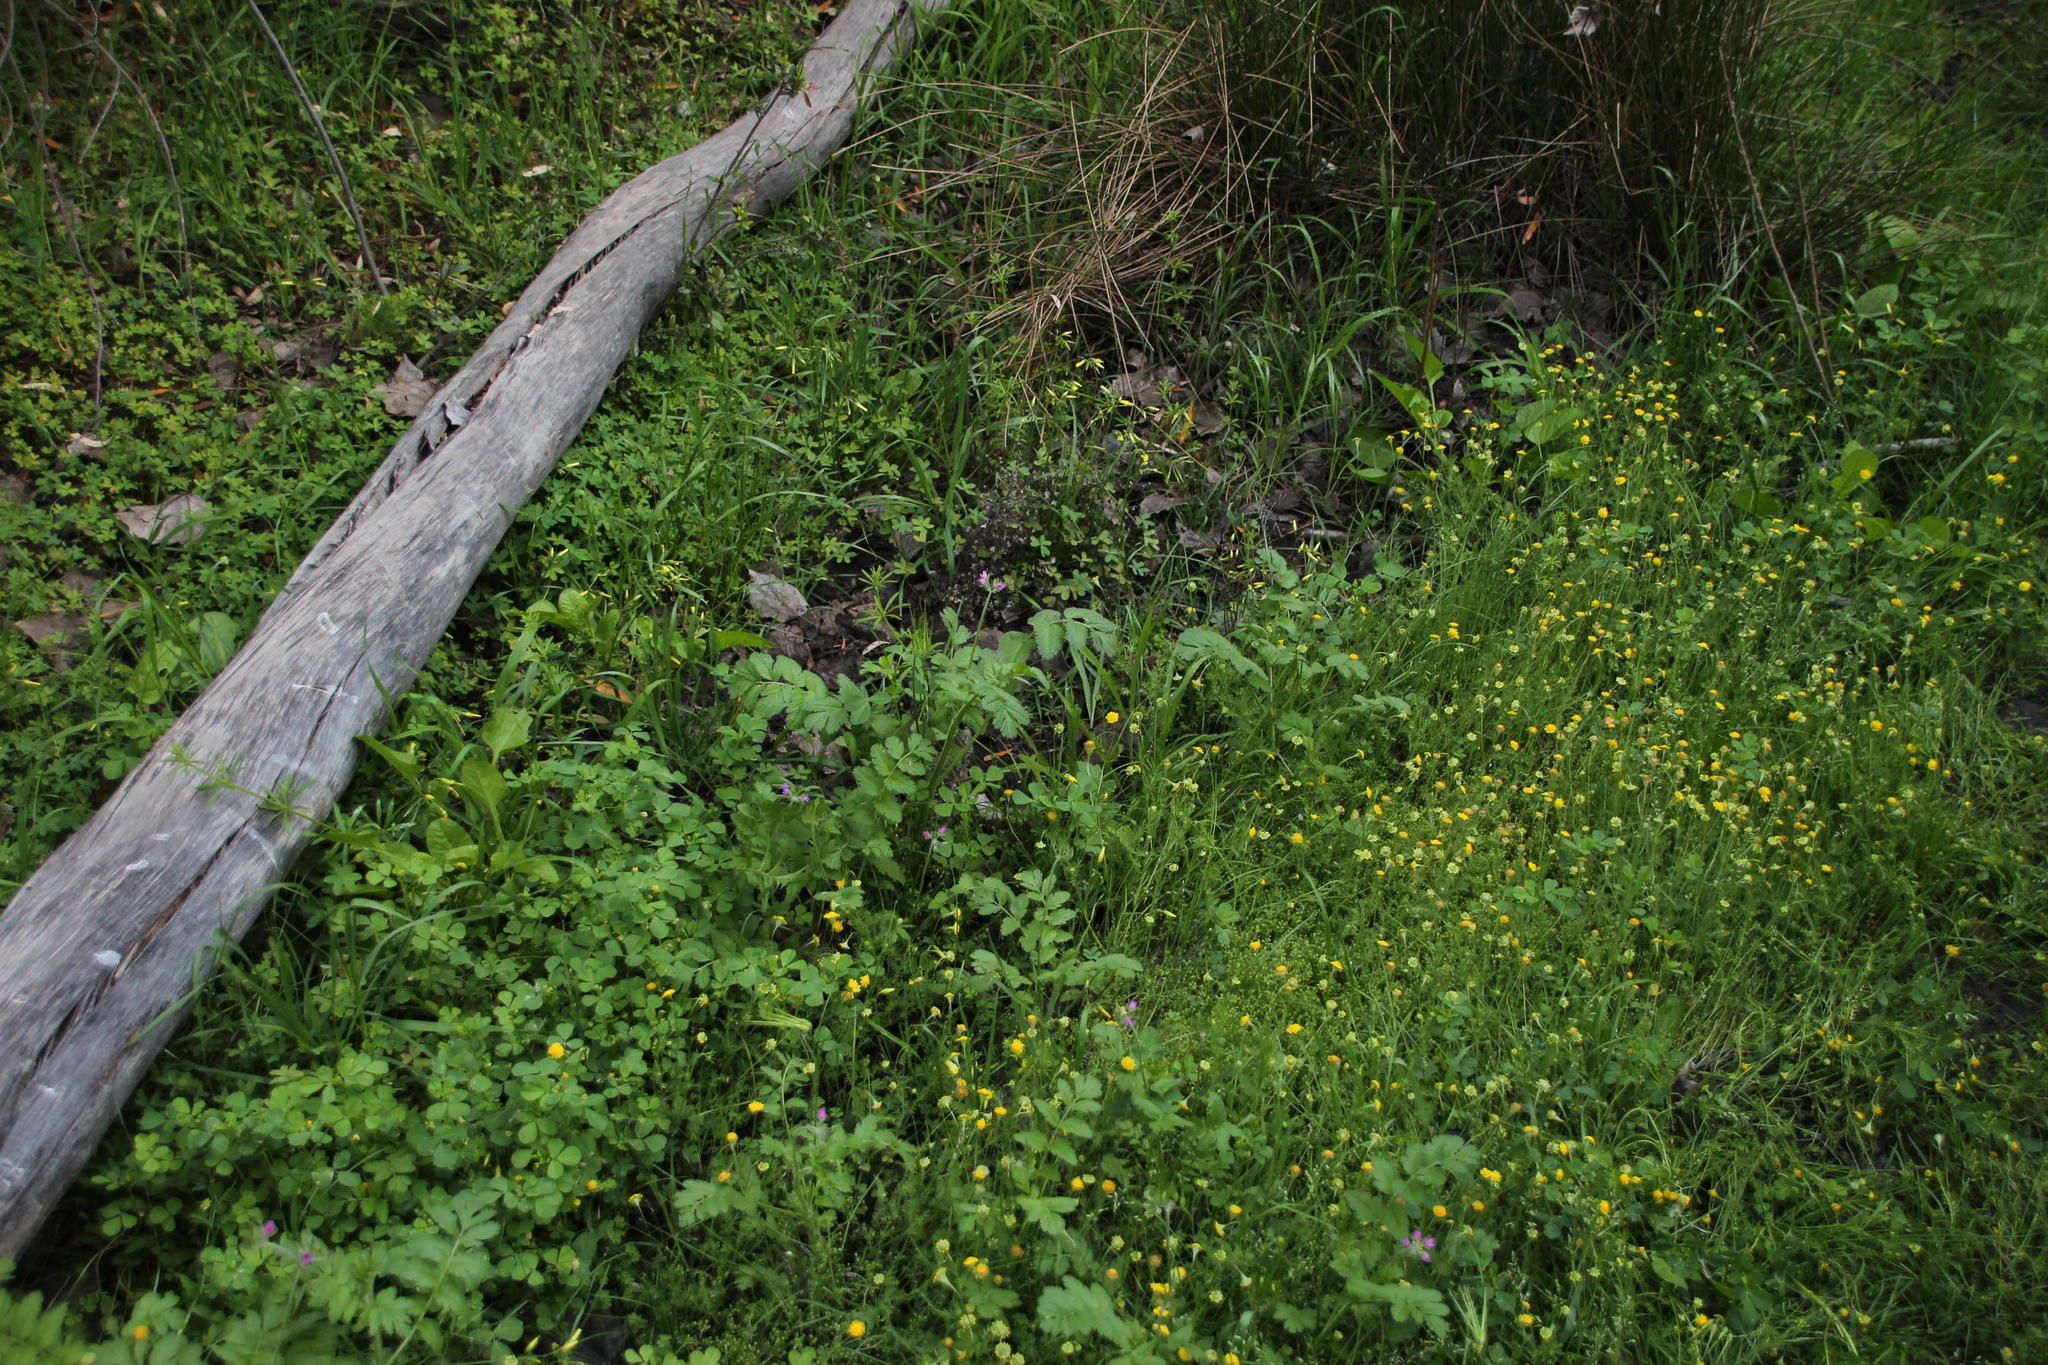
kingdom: Plantae
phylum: Tracheophyta
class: Magnoliopsida
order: Geraniales
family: Geraniaceae
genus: Erodium
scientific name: Erodium moschatum
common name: Musk stork's-bill
